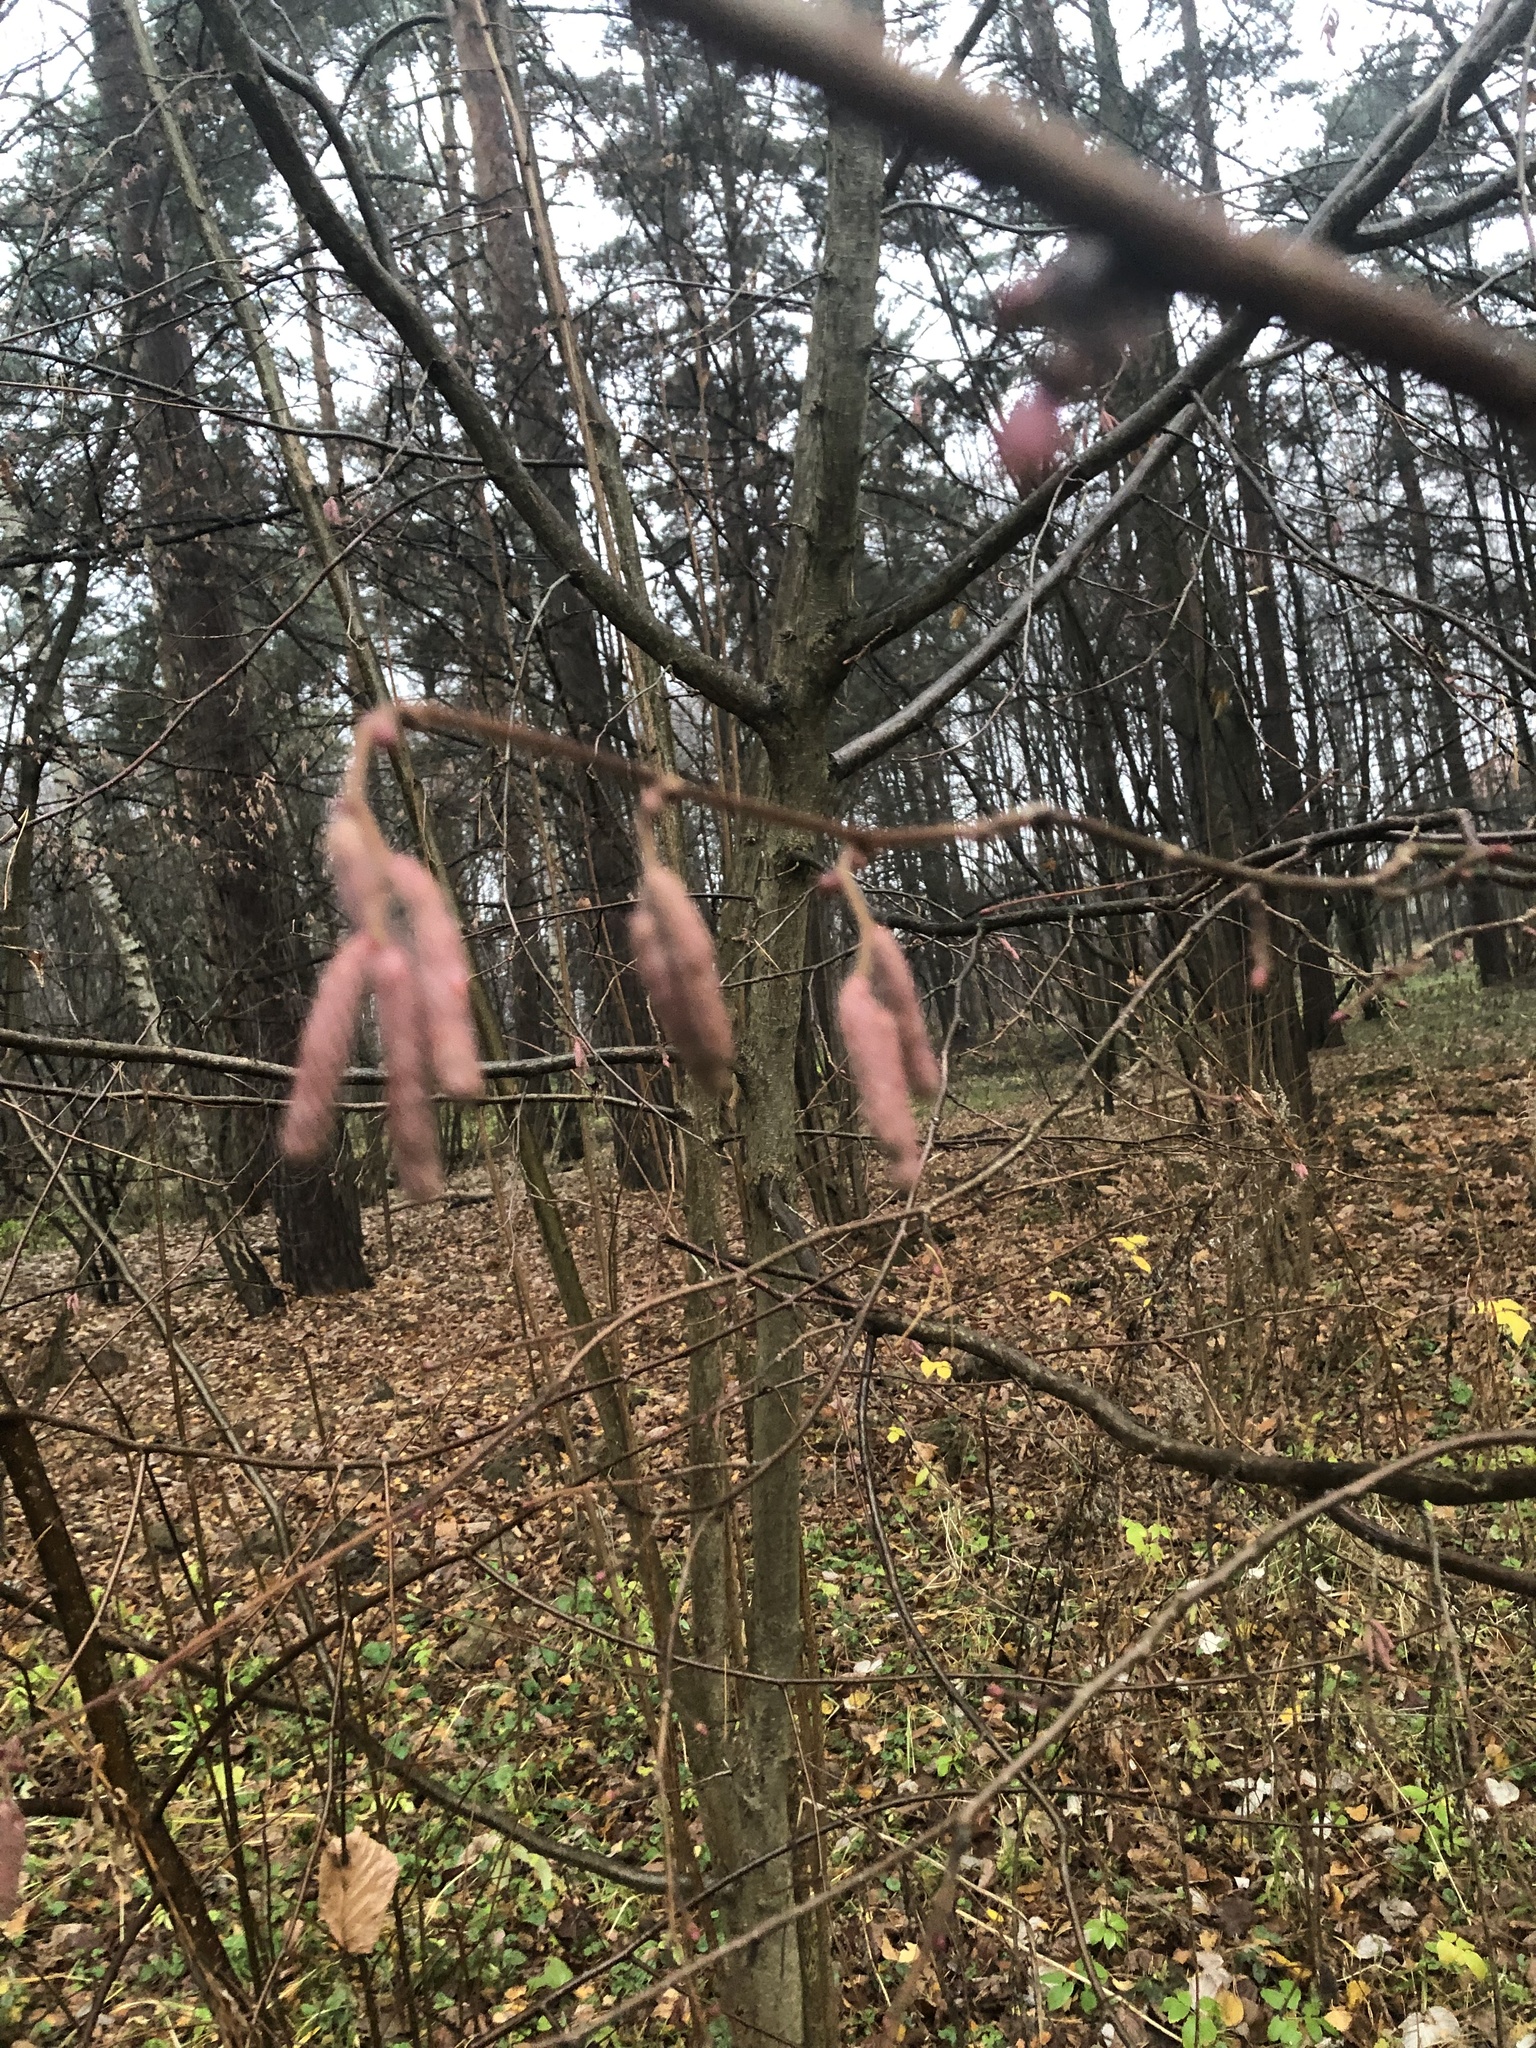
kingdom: Plantae
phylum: Tracheophyta
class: Magnoliopsida
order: Fagales
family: Betulaceae
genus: Corylus
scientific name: Corylus avellana
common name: European hazel
